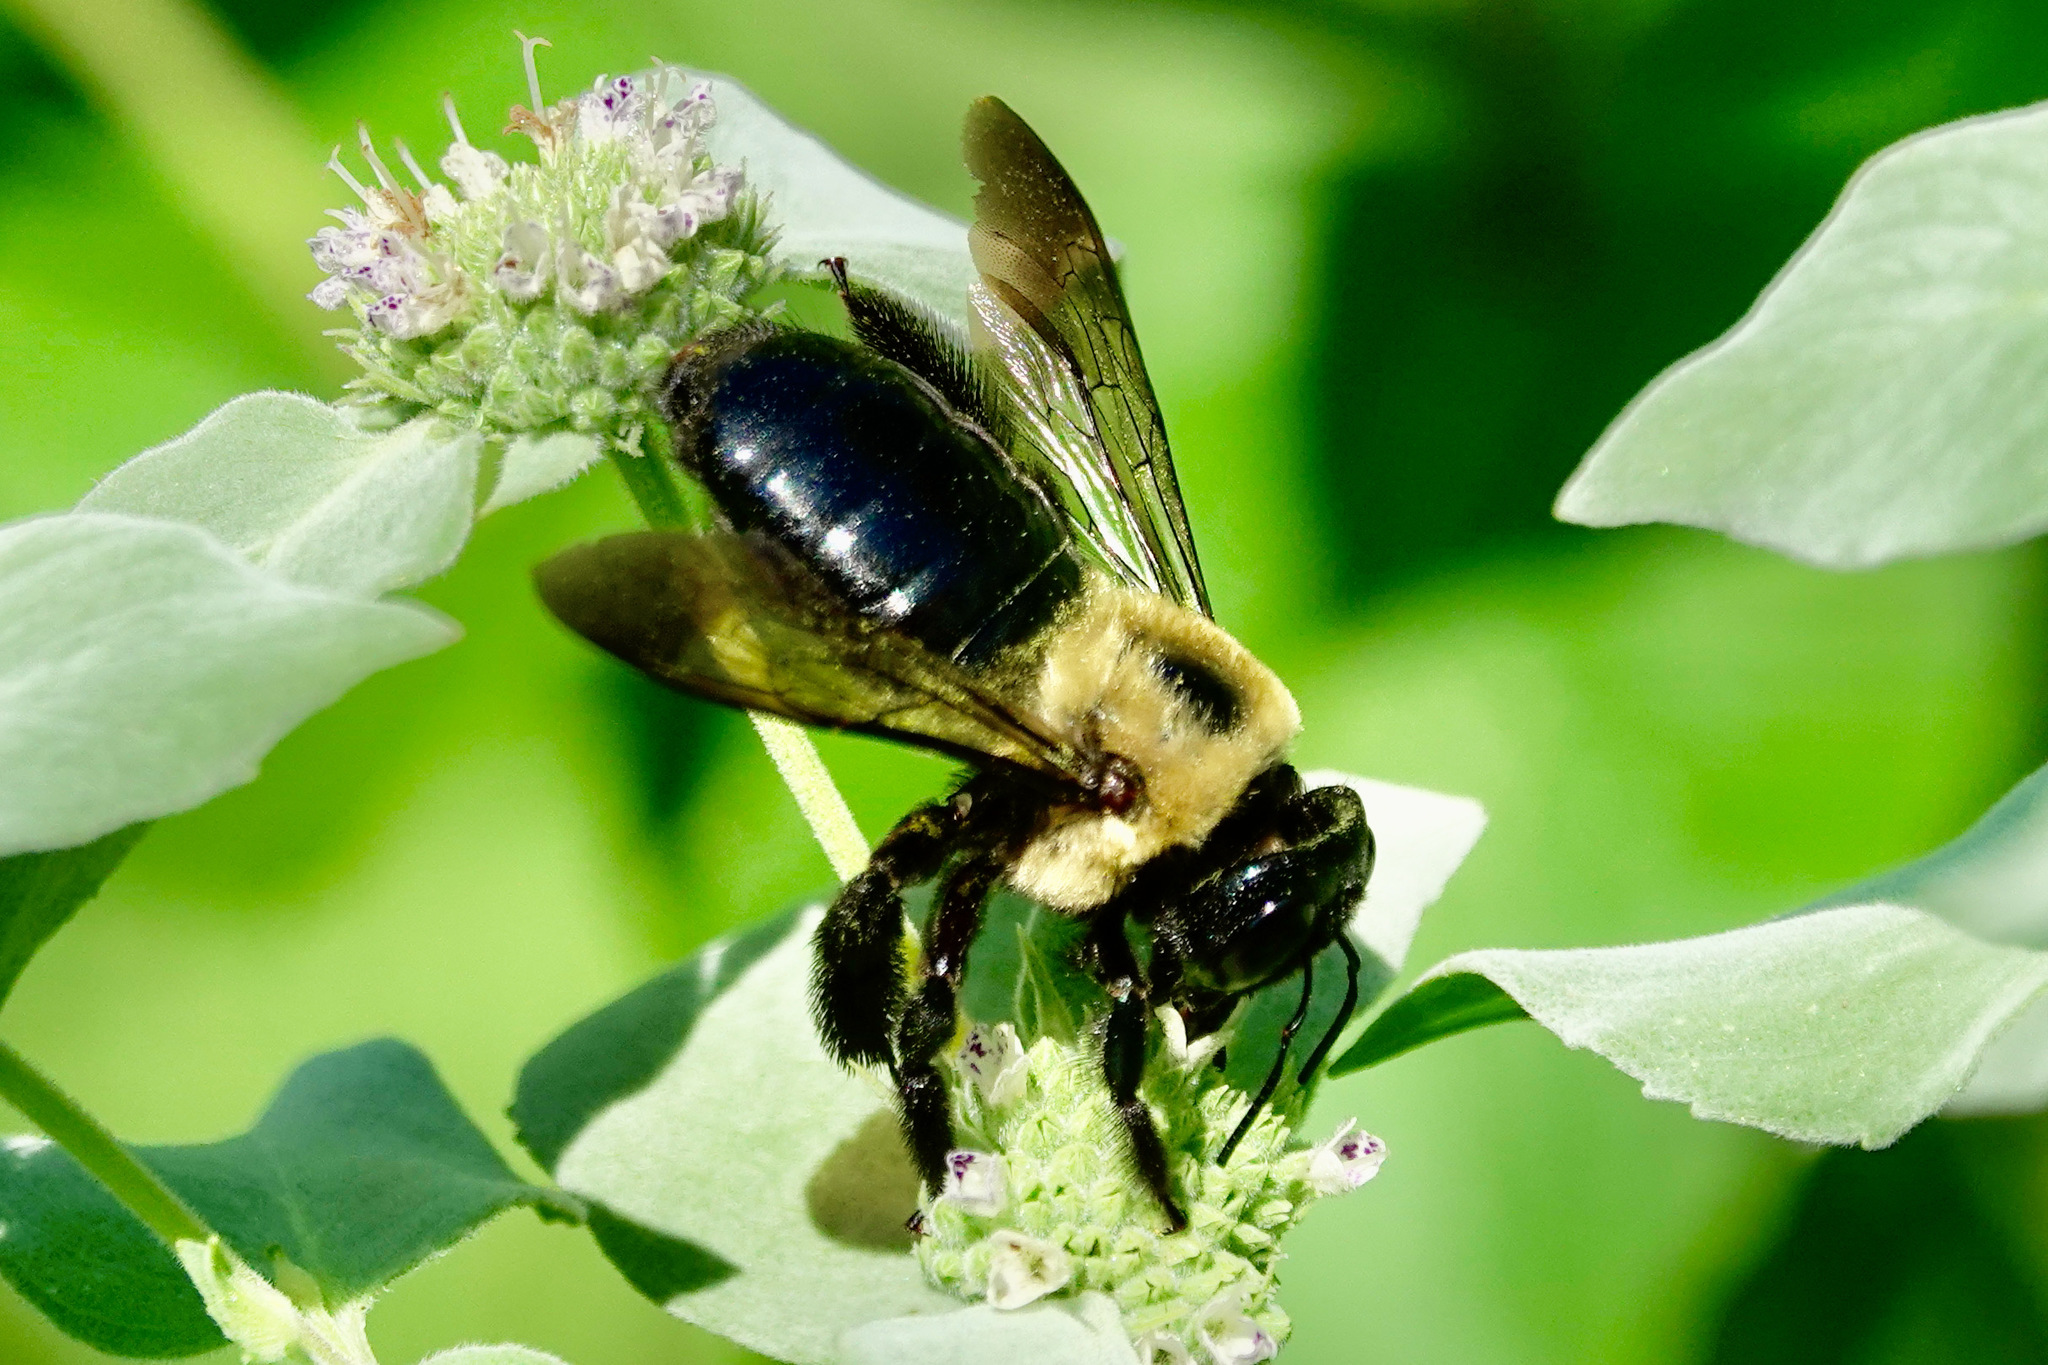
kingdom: Animalia
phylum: Arthropoda
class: Insecta
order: Hymenoptera
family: Apidae
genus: Xylocopa
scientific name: Xylocopa virginica
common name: Carpenter bee
